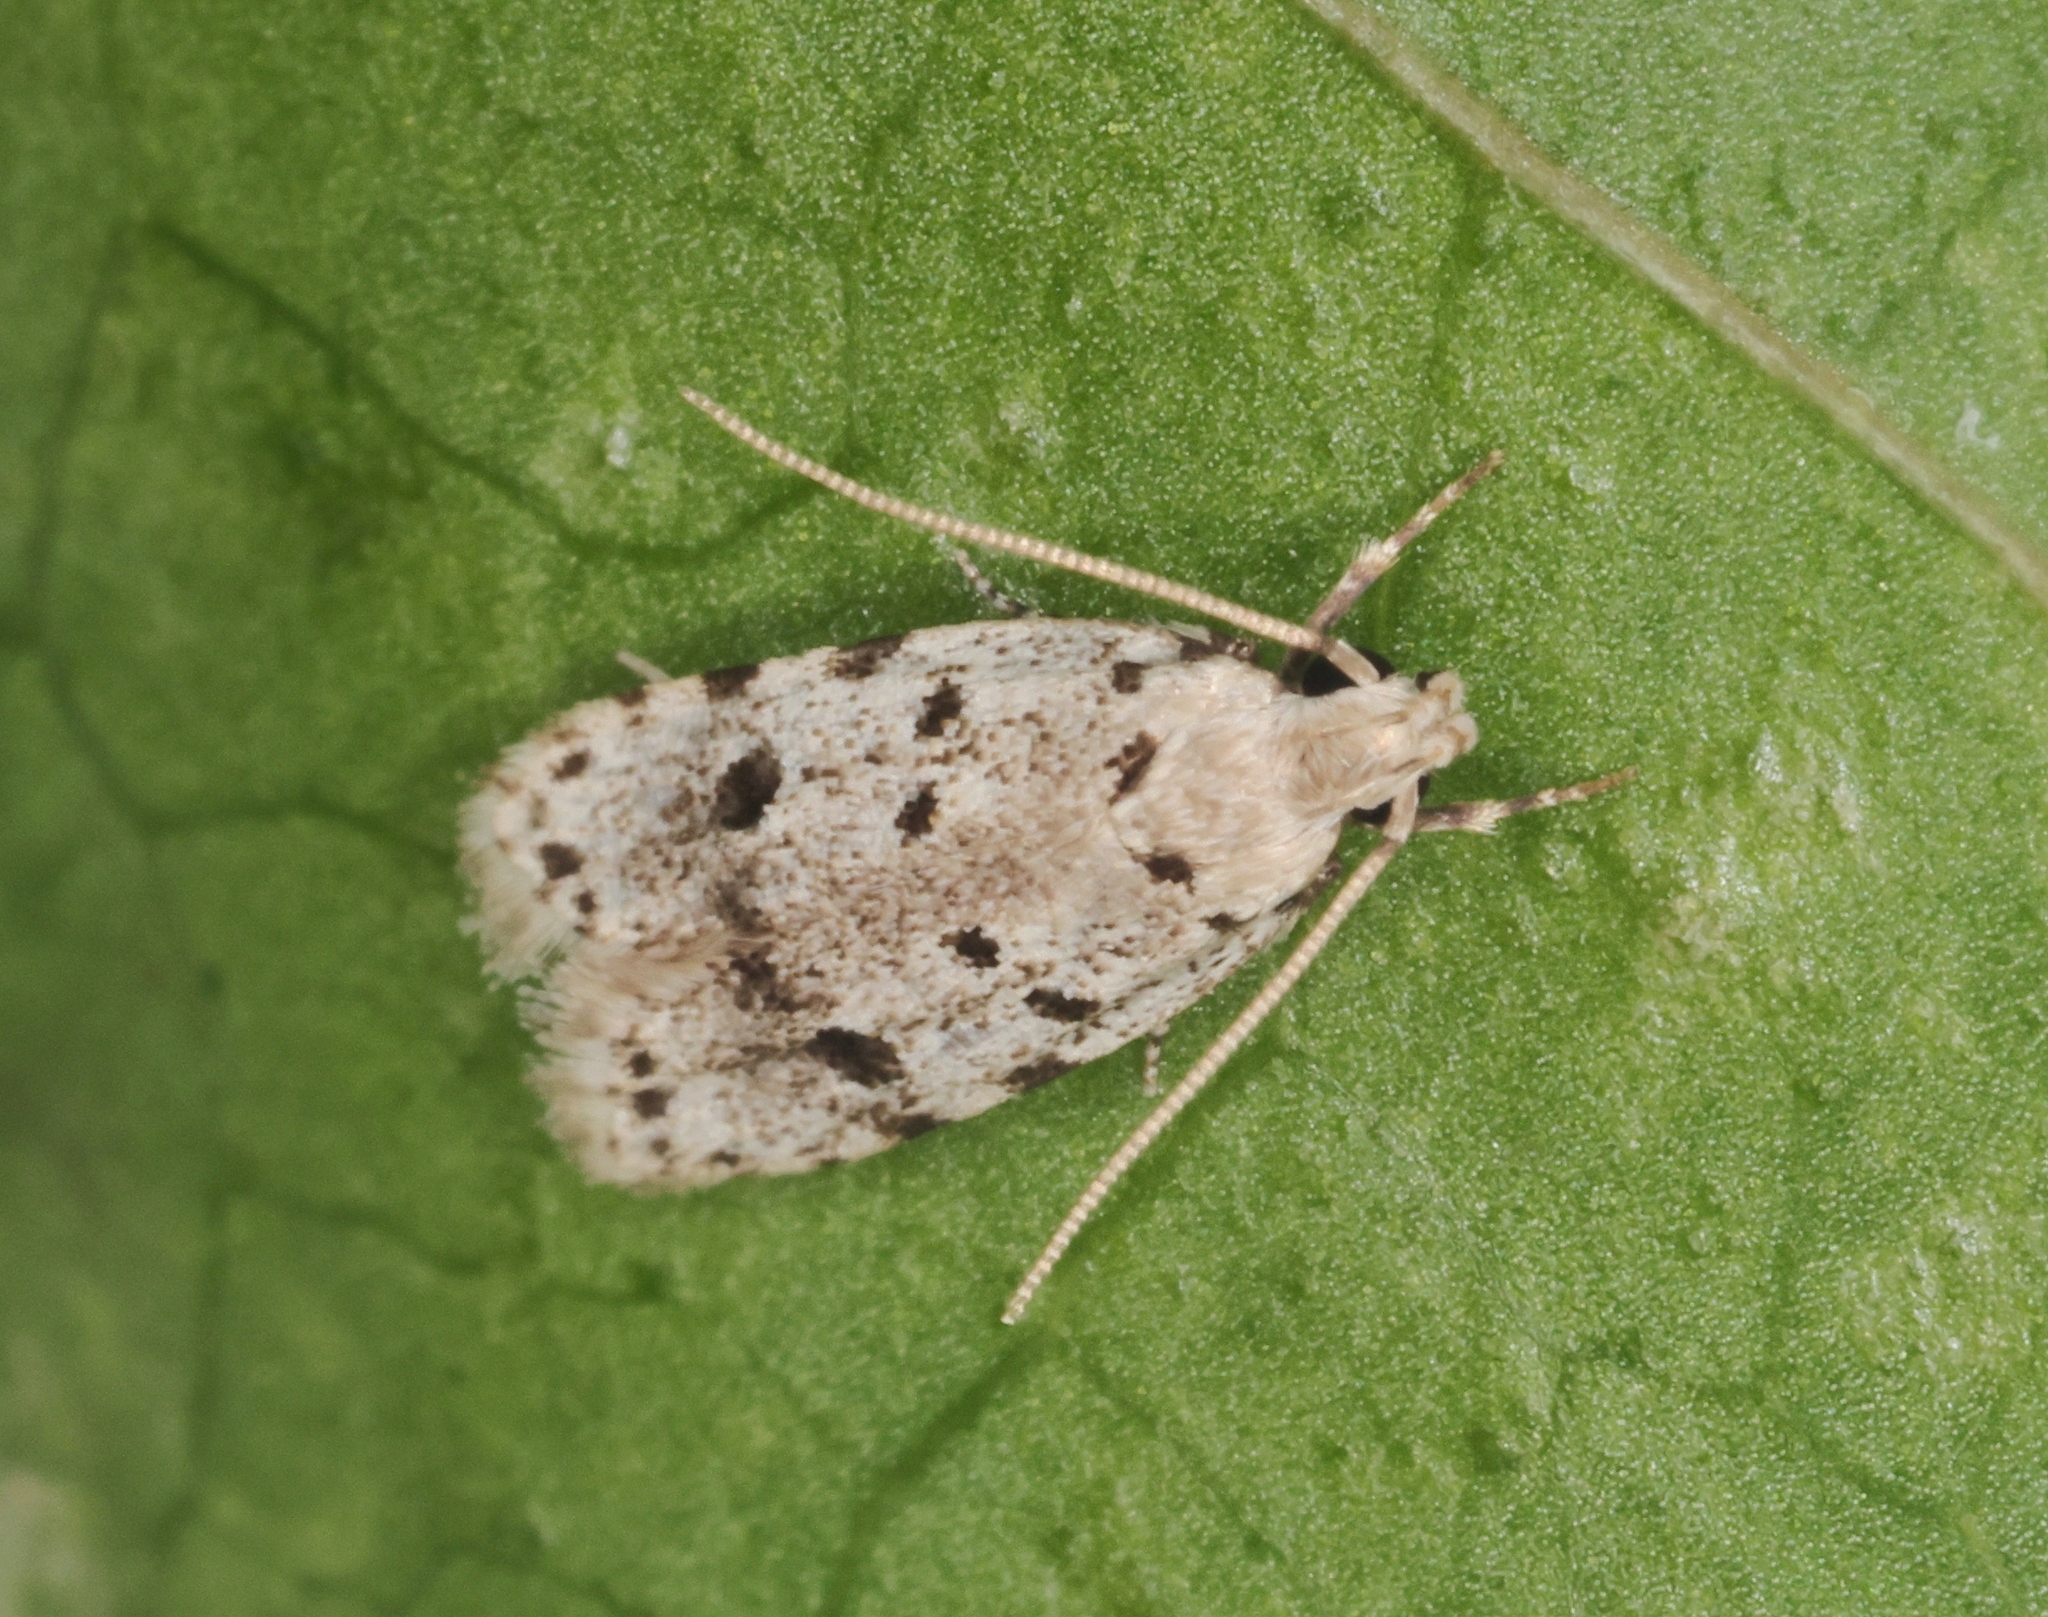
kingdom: Animalia
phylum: Arthropoda
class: Insecta
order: Lepidoptera
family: Autostichidae
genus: Autosticha
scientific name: Autosticha calceata
